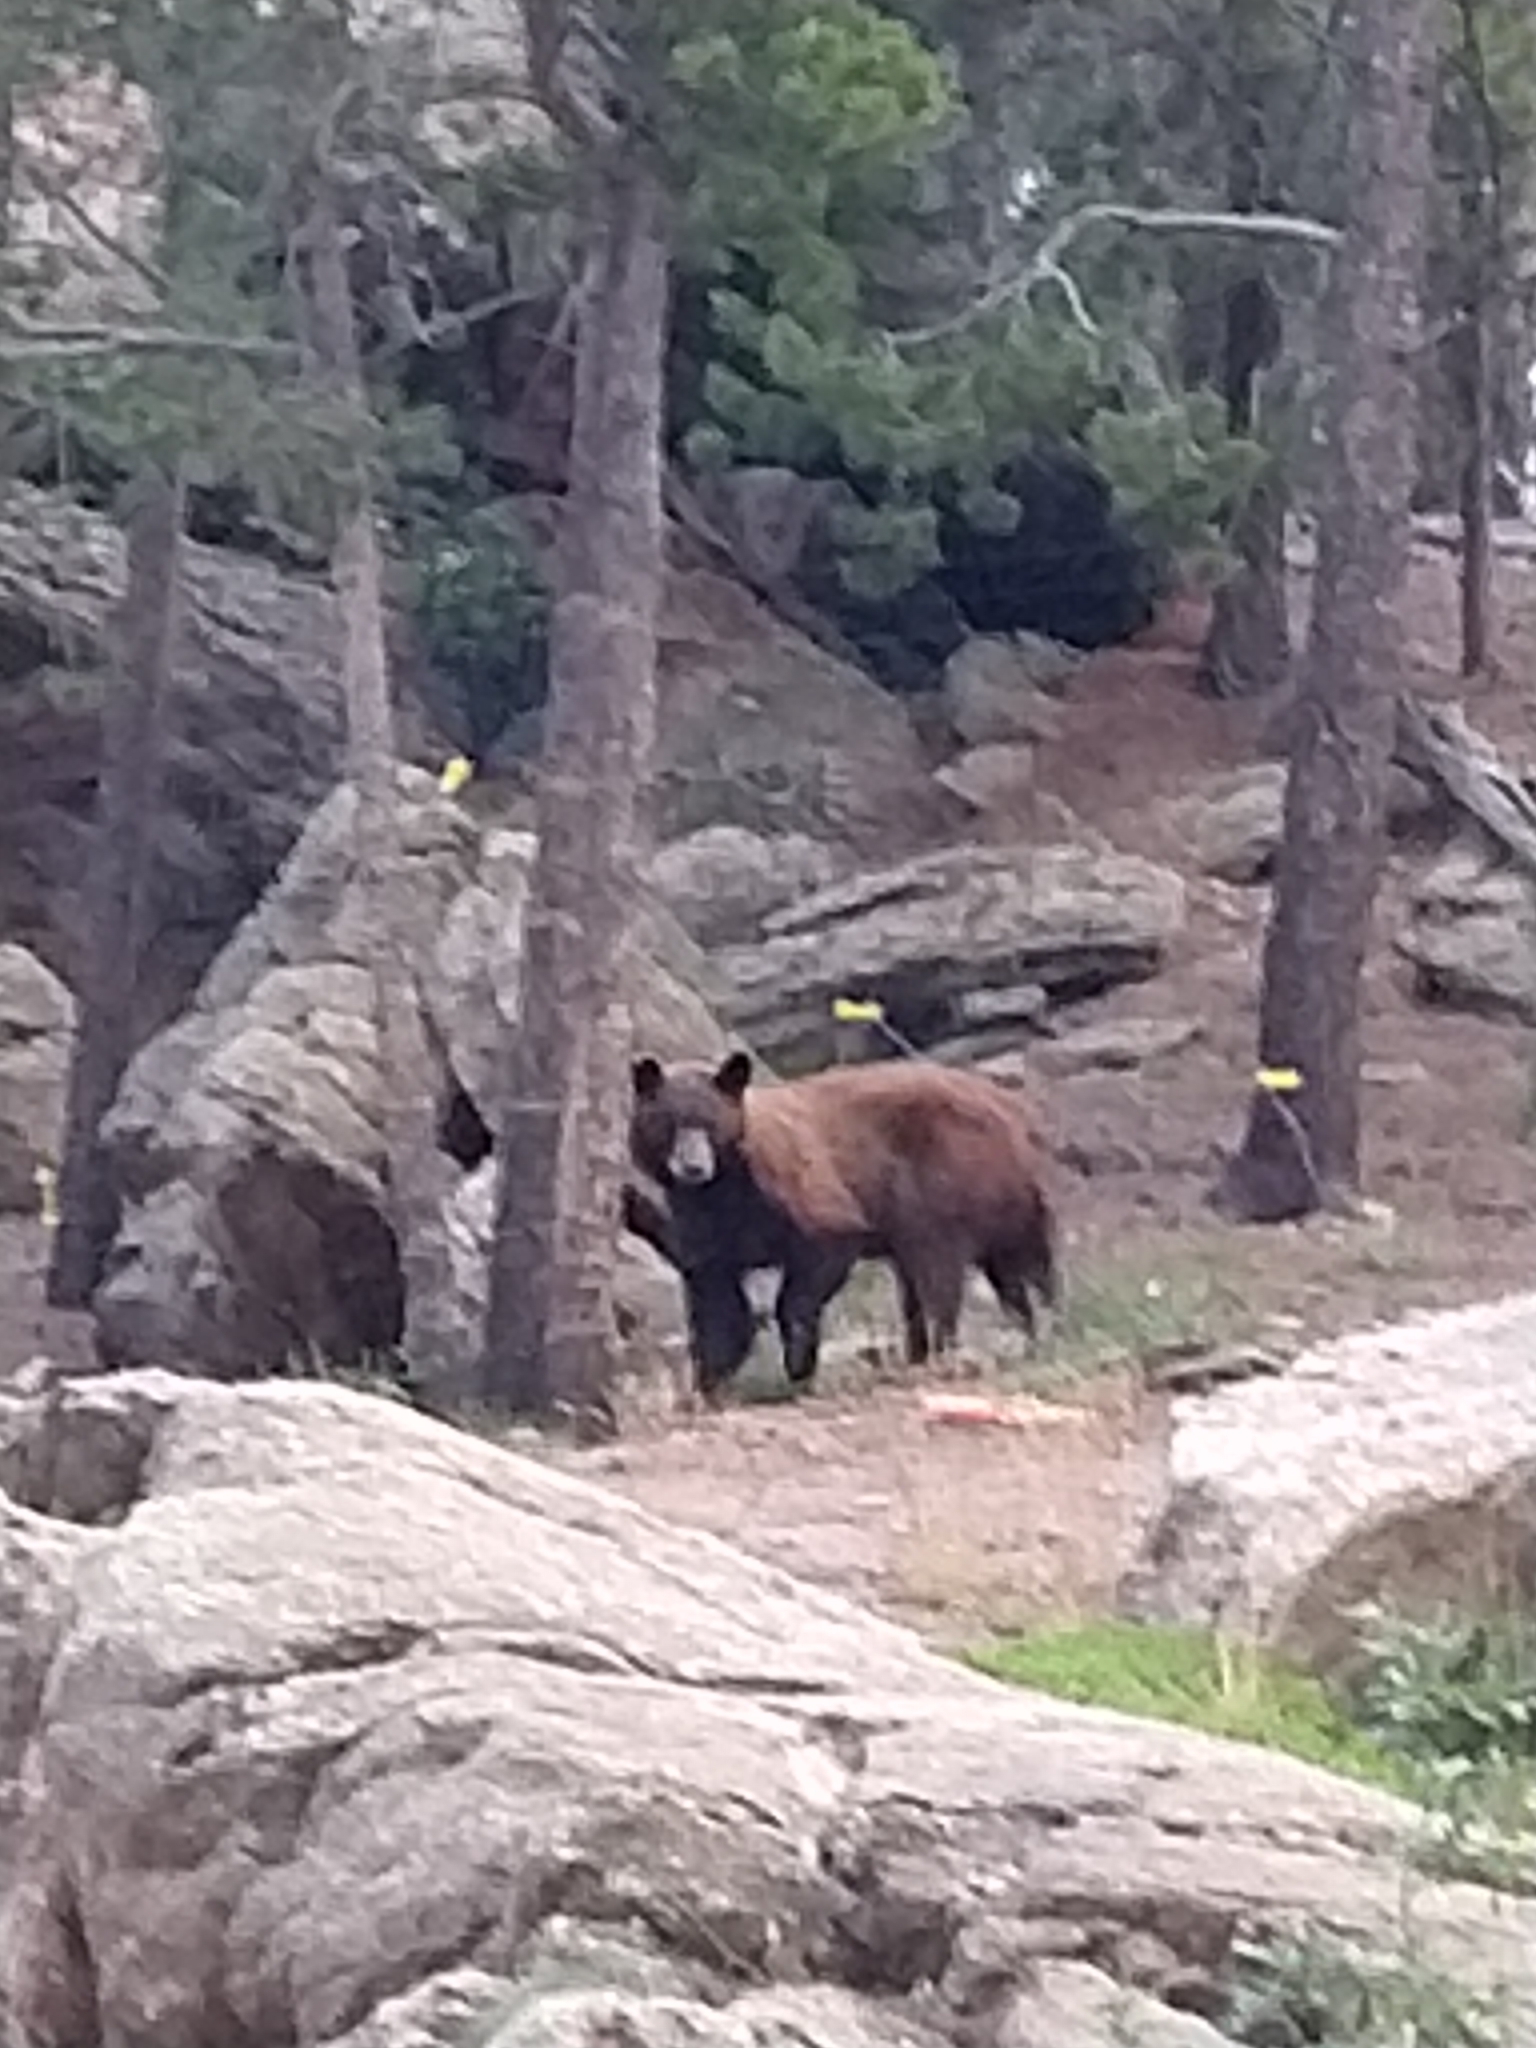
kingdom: Animalia
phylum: Chordata
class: Mammalia
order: Carnivora
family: Ursidae
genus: Ursus
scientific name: Ursus americanus
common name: American black bear
